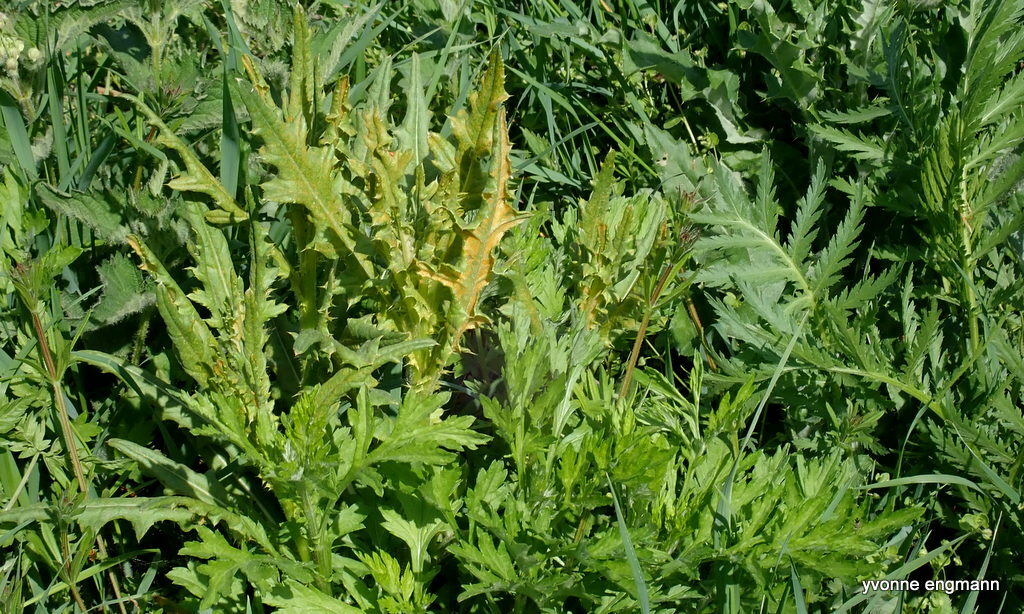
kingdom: Fungi
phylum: Basidiomycota
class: Pucciniomycetes
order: Pucciniales
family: Pucciniaceae
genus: Puccinia
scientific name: Puccinia suaveolens
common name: Thistle rust
